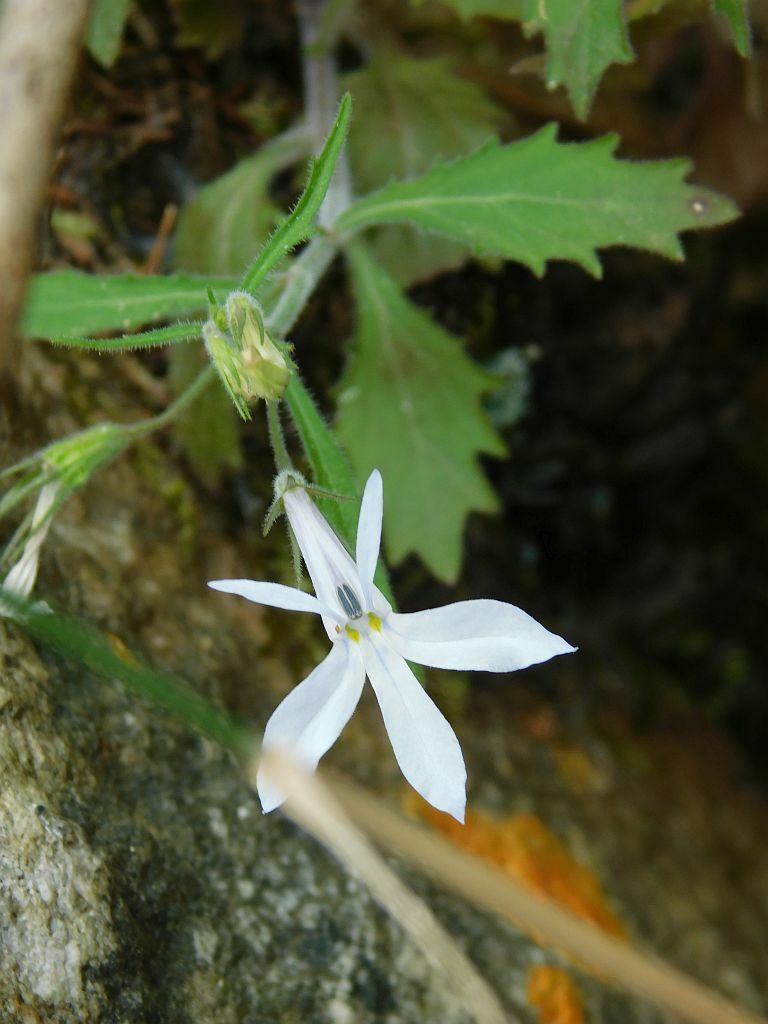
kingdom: Plantae
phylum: Tracheophyta
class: Magnoliopsida
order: Asterales
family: Campanulaceae
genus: Lobelia
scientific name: Lobelia pubescens
